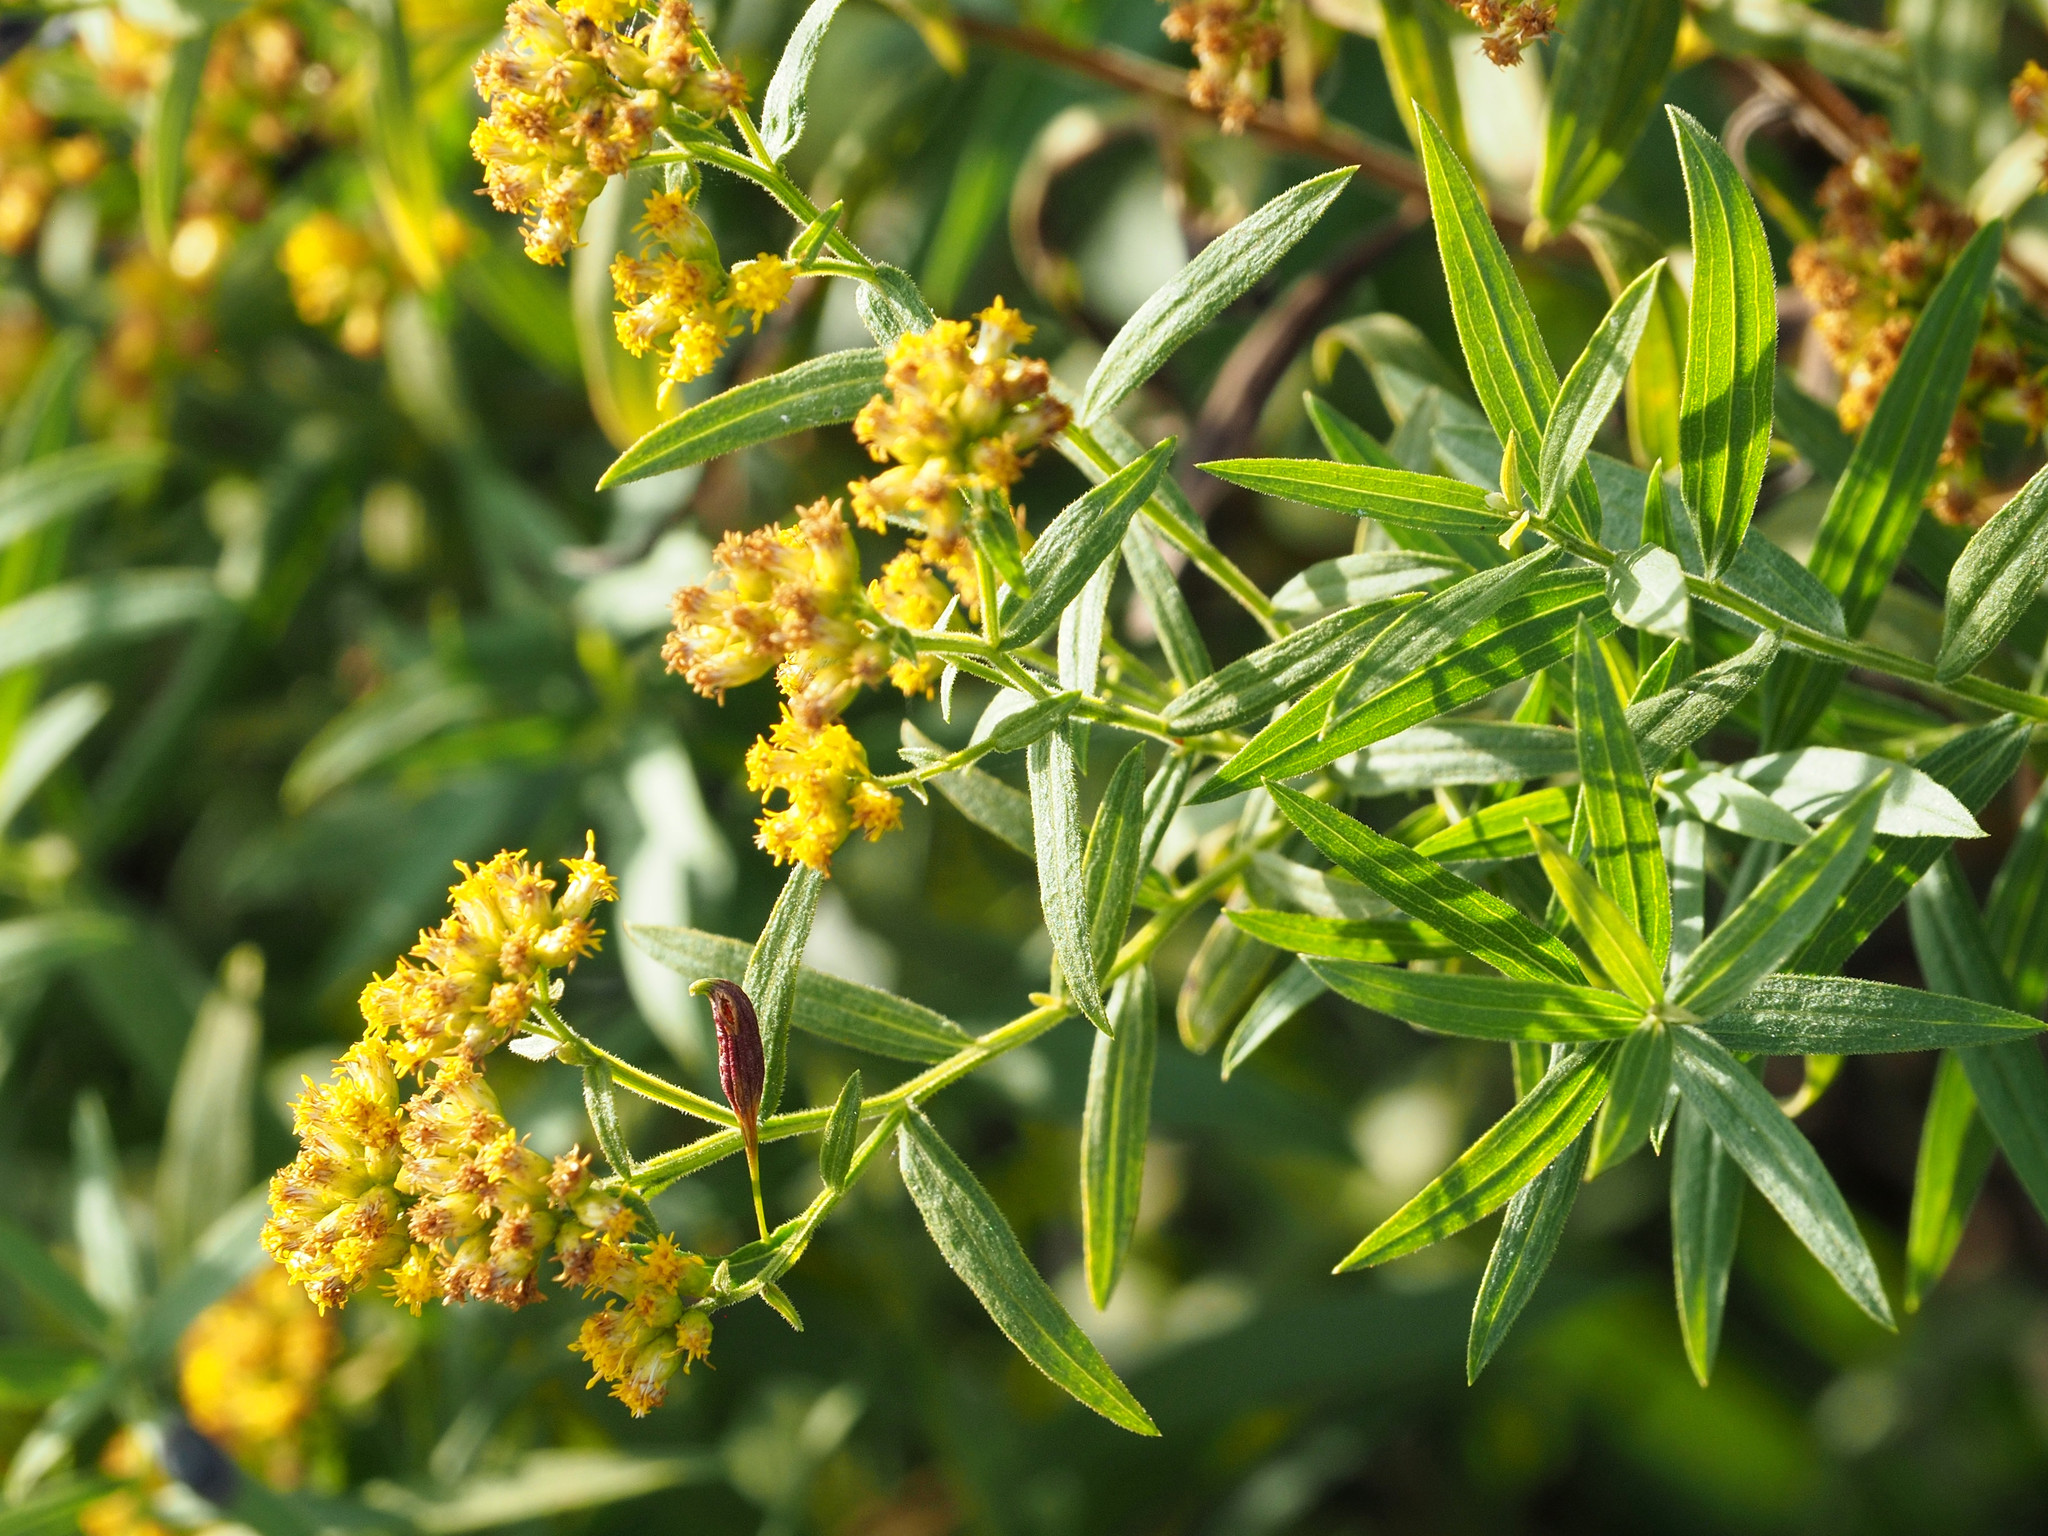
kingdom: Animalia
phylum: Arthropoda
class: Insecta
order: Diptera
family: Cecidomyiidae
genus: Rhopalomyia
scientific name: Rhopalomyia pedicellata
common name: Goldentop pedicellate gall midge
